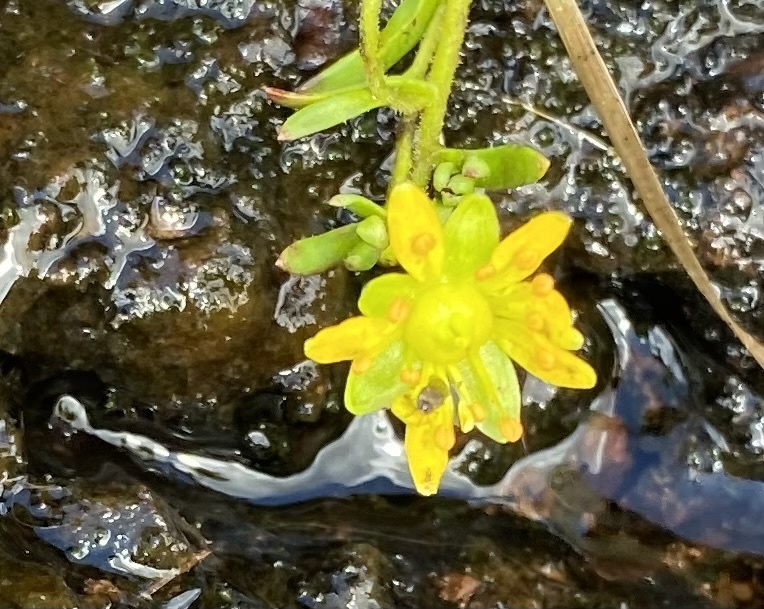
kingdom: Plantae
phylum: Tracheophyta
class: Magnoliopsida
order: Saxifragales
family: Saxifragaceae
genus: Saxifraga
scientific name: Saxifraga aizoides
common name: Yellow mountain saxifrage
